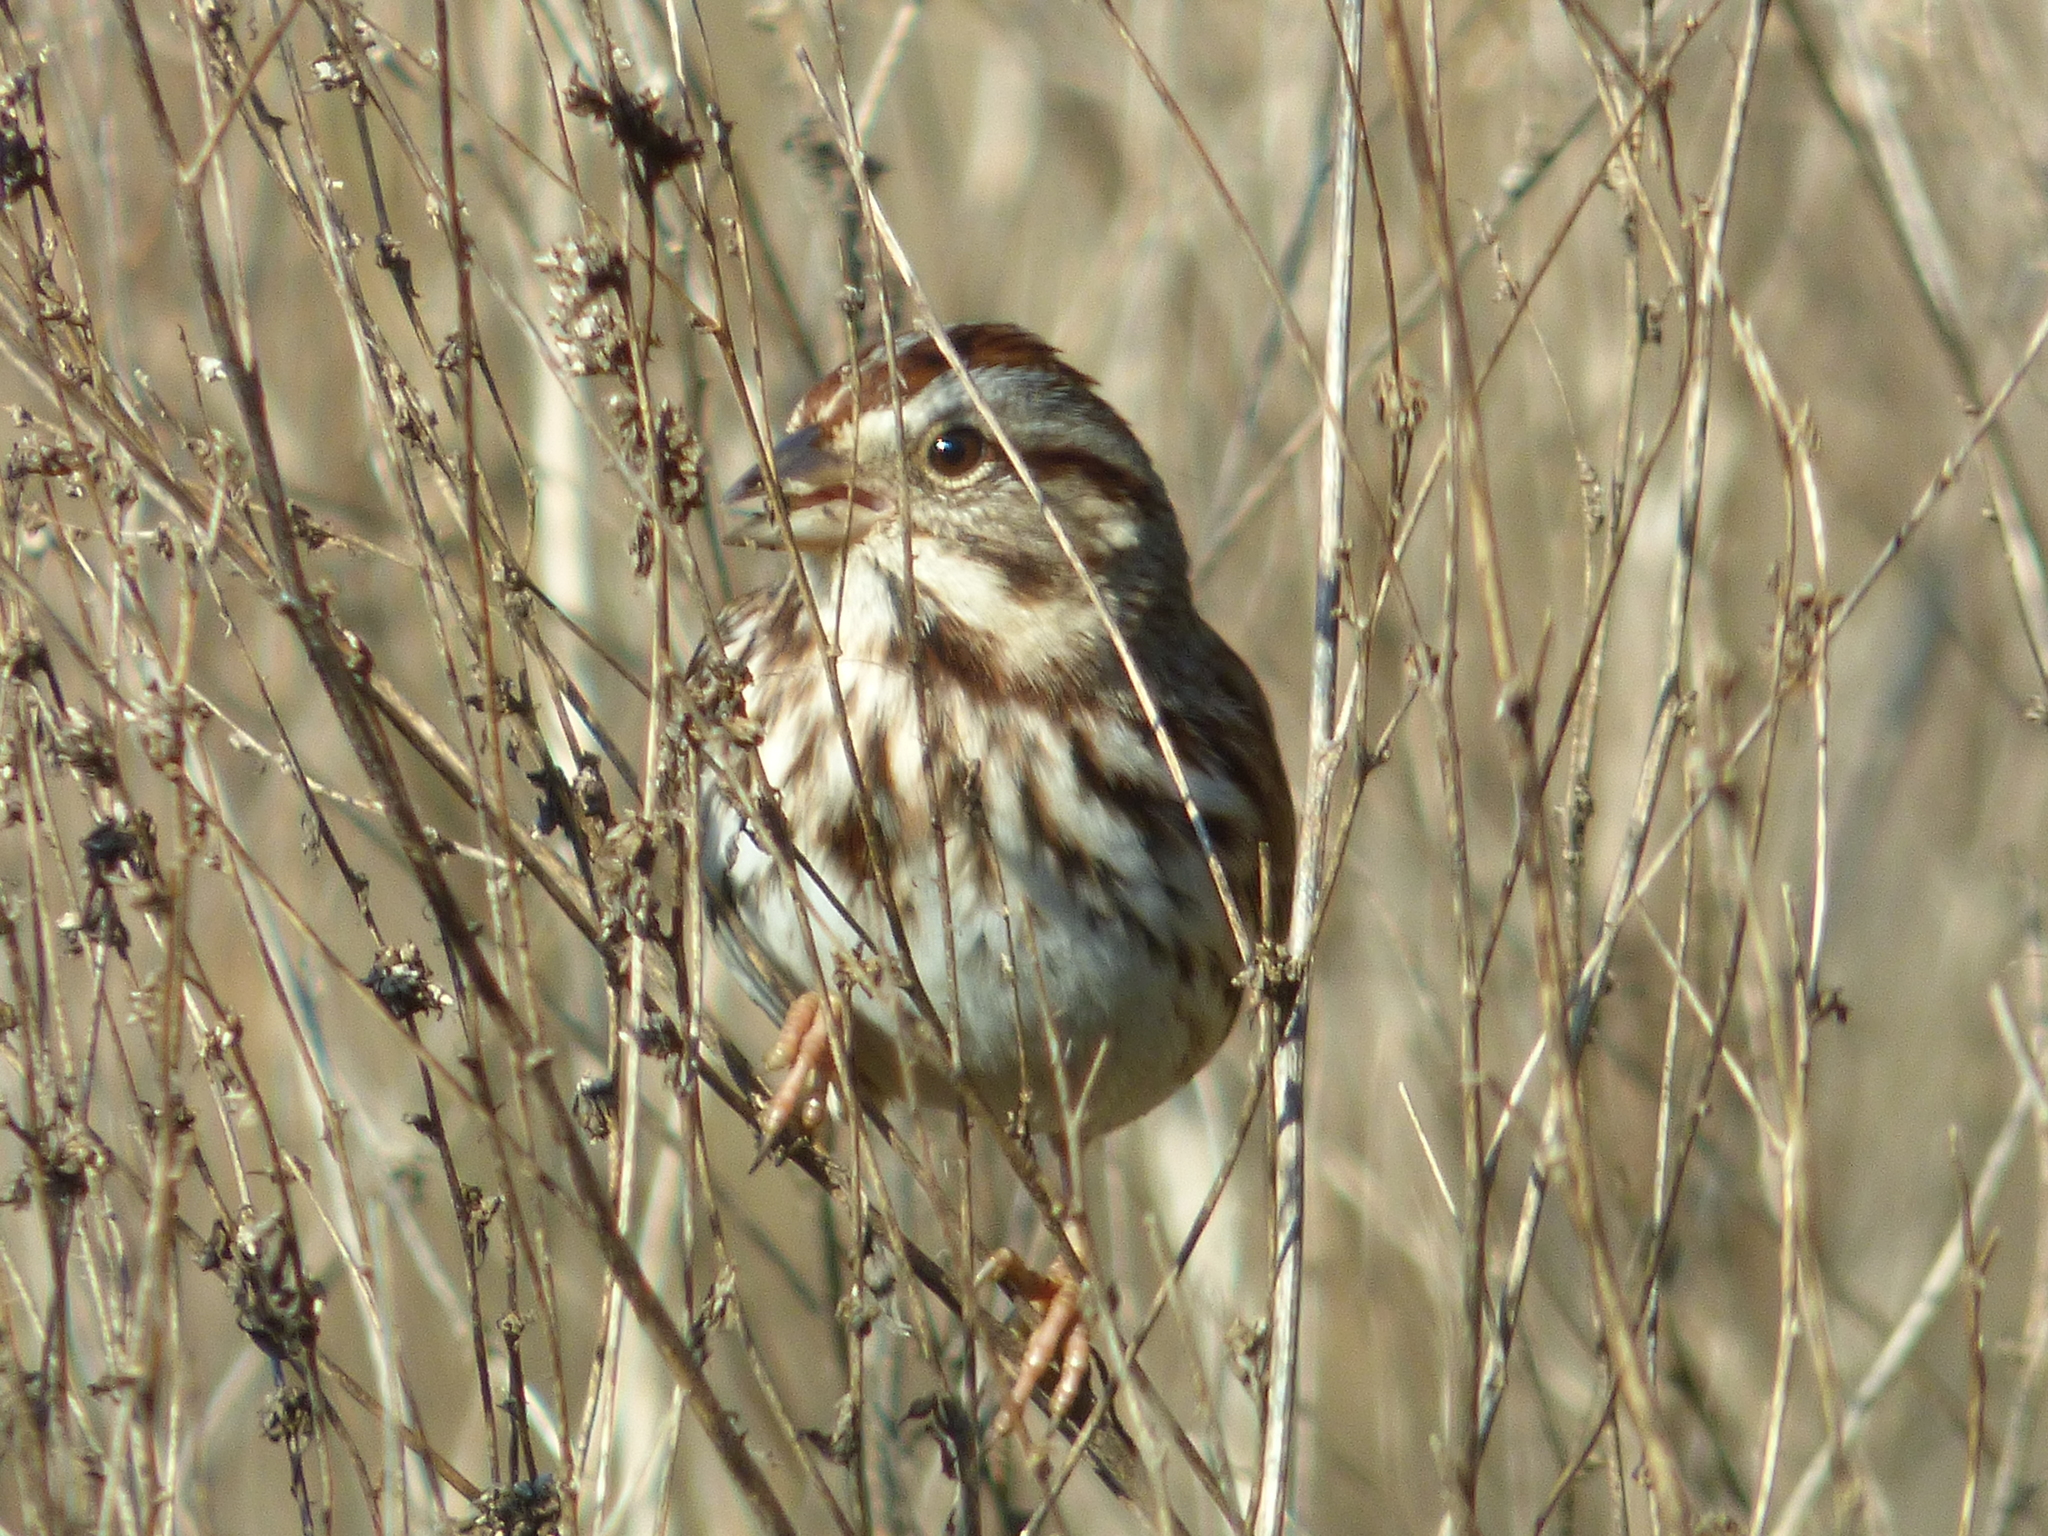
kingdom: Animalia
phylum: Chordata
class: Aves
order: Passeriformes
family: Passerellidae
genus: Melospiza
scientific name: Melospiza melodia
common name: Song sparrow
